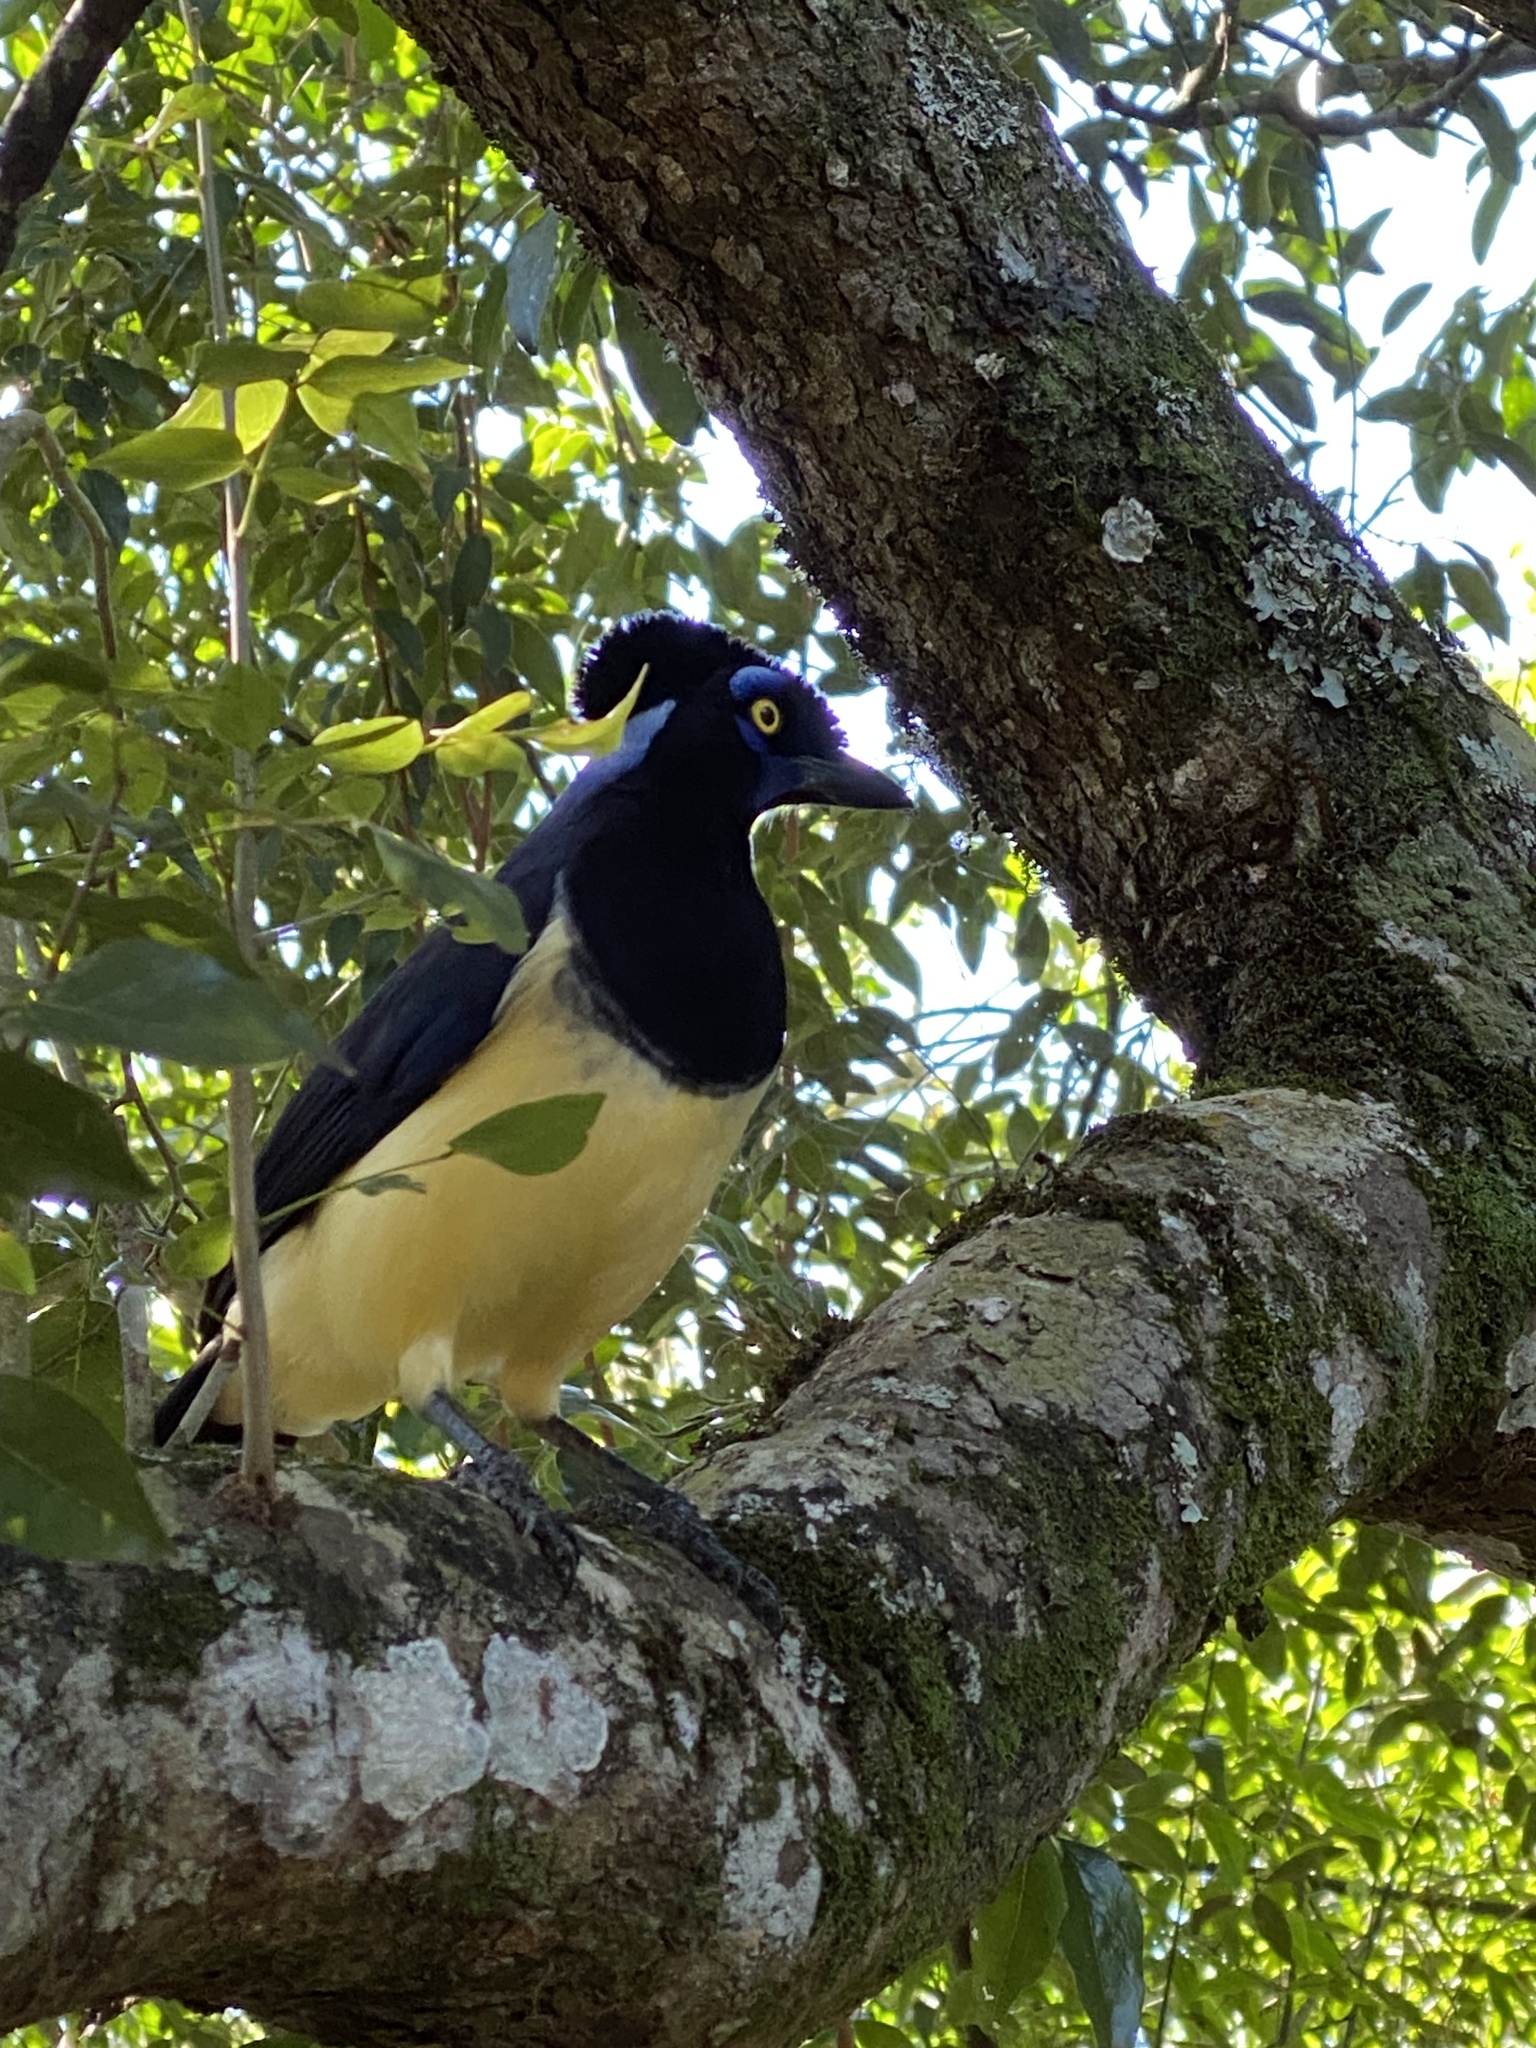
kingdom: Animalia
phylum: Chordata
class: Aves
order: Passeriformes
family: Corvidae
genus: Cyanocorax
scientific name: Cyanocorax chrysops
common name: Plush-crested jay
